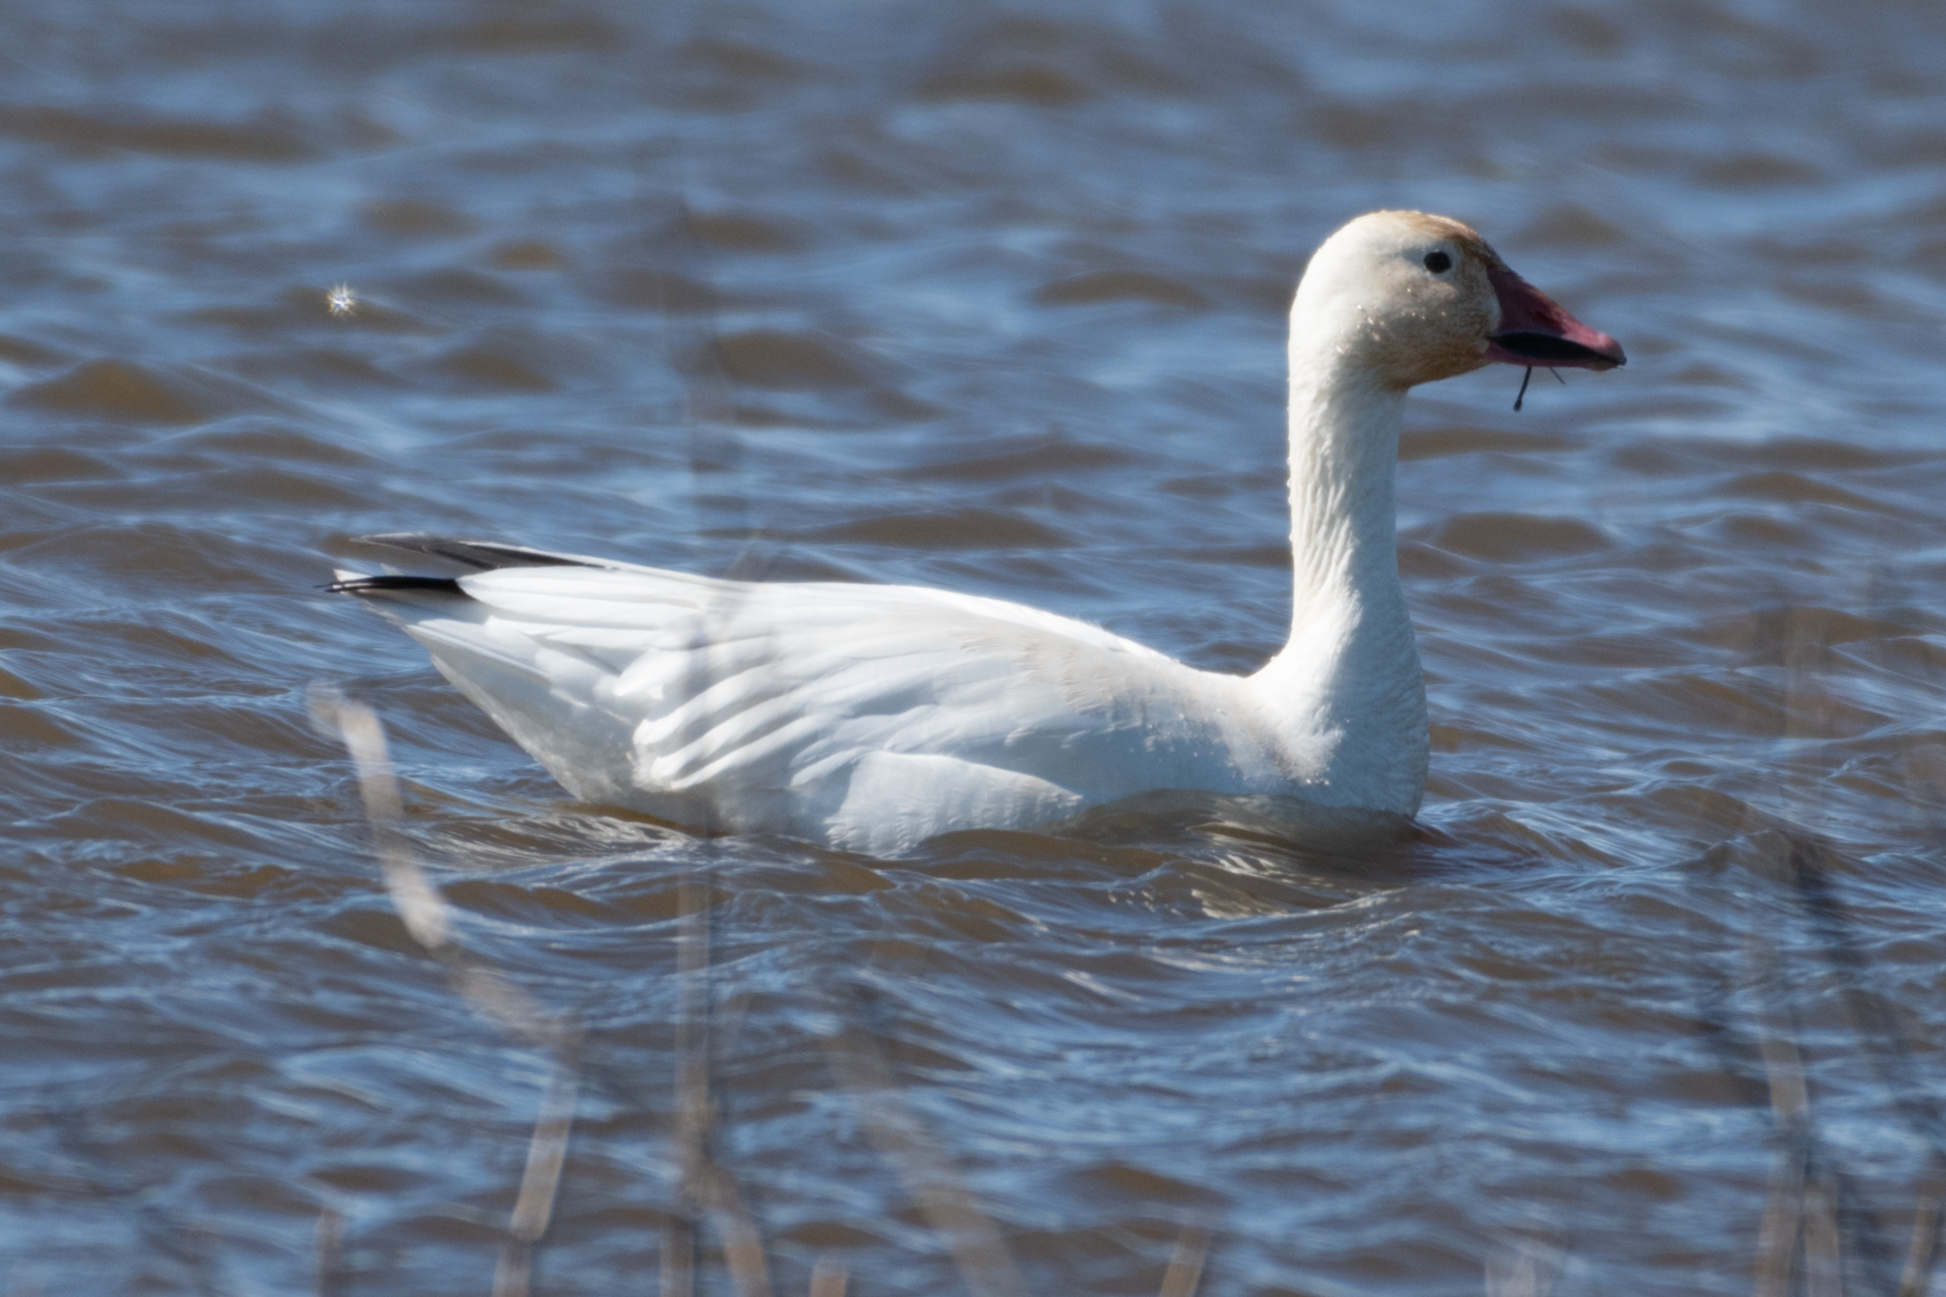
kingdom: Animalia
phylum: Chordata
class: Aves
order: Anseriformes
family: Anatidae
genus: Anser
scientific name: Anser caerulescens
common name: Snow goose
